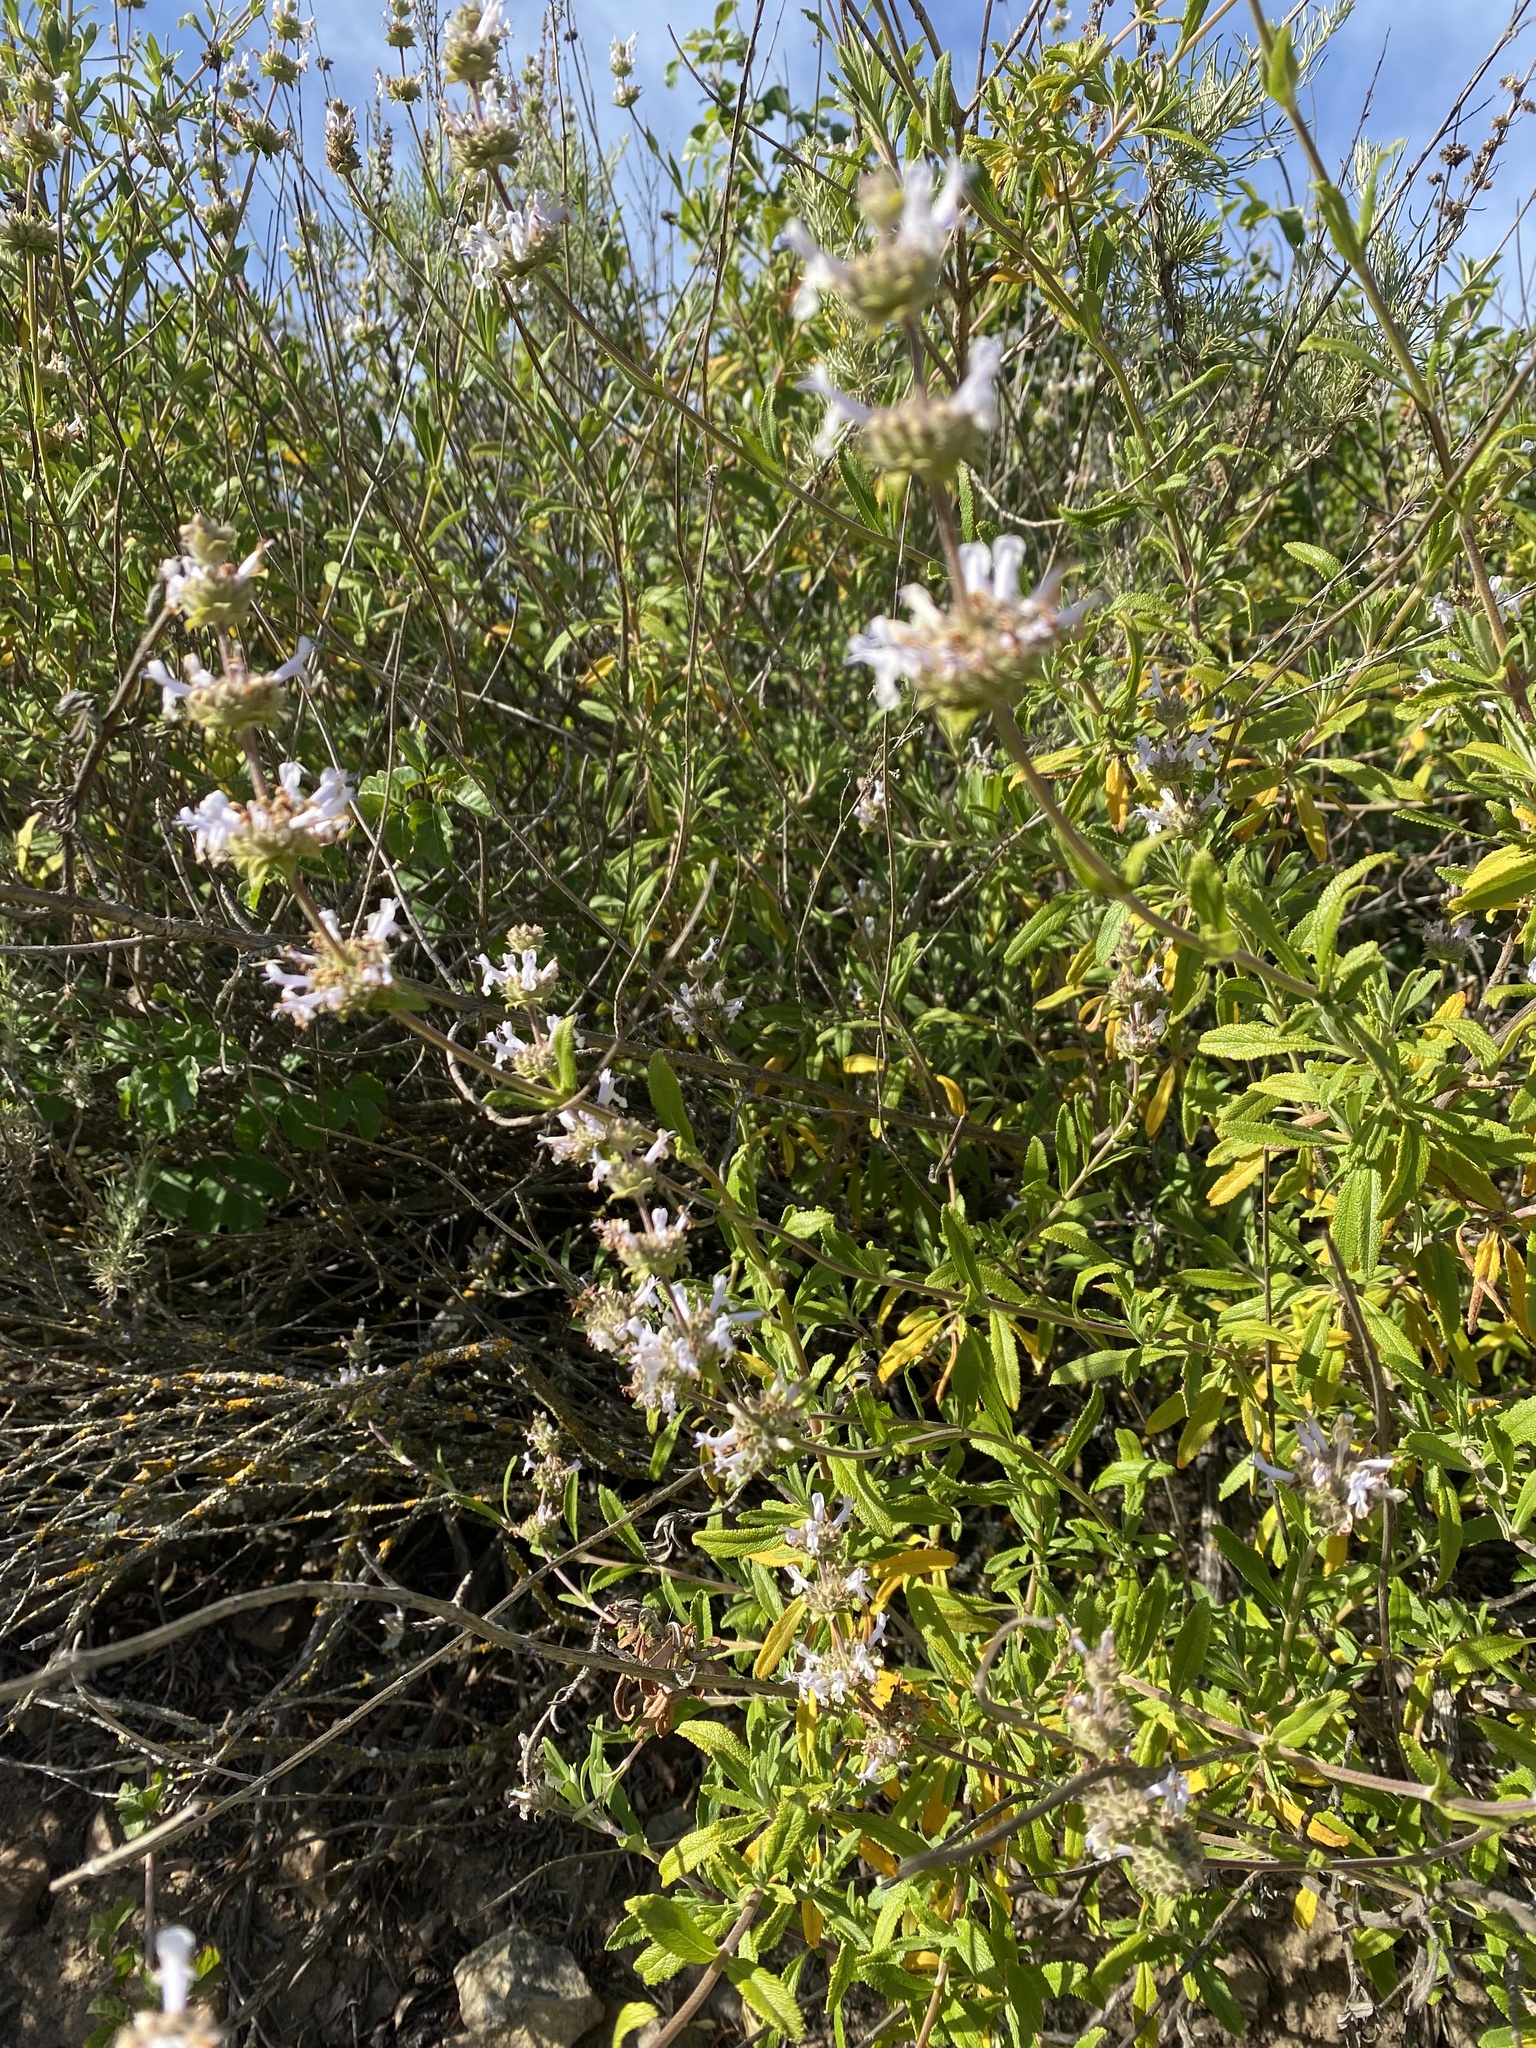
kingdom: Plantae
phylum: Tracheophyta
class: Magnoliopsida
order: Lamiales
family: Lamiaceae
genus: Salvia
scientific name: Salvia mellifera
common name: Black sage
